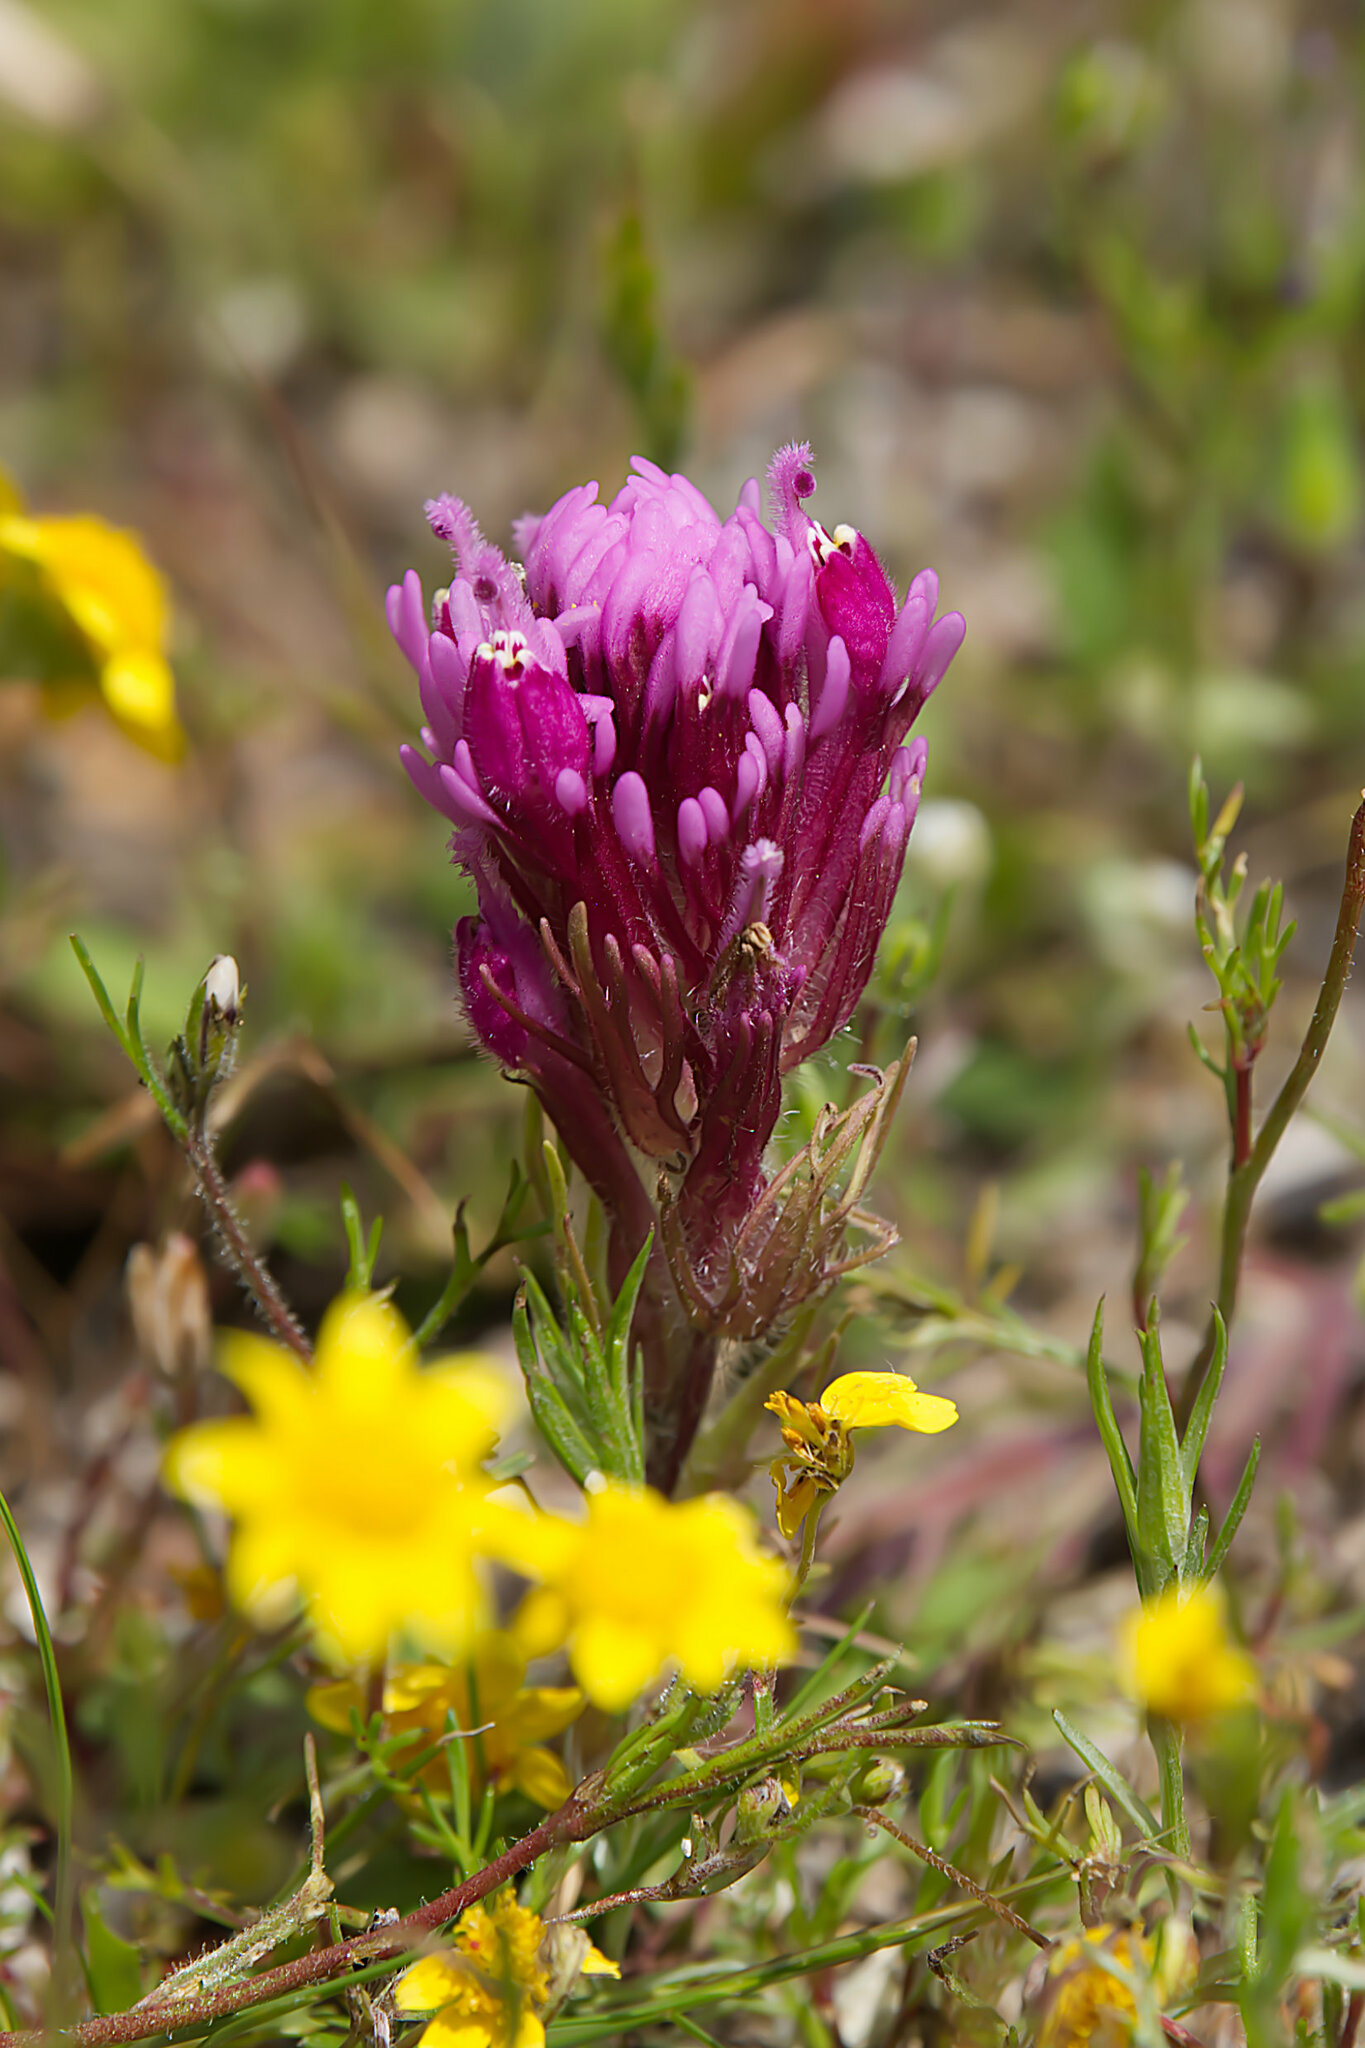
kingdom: Plantae
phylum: Tracheophyta
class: Magnoliopsida
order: Lamiales
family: Orobanchaceae
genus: Castilleja
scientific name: Castilleja exserta
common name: Purple owl-clover
